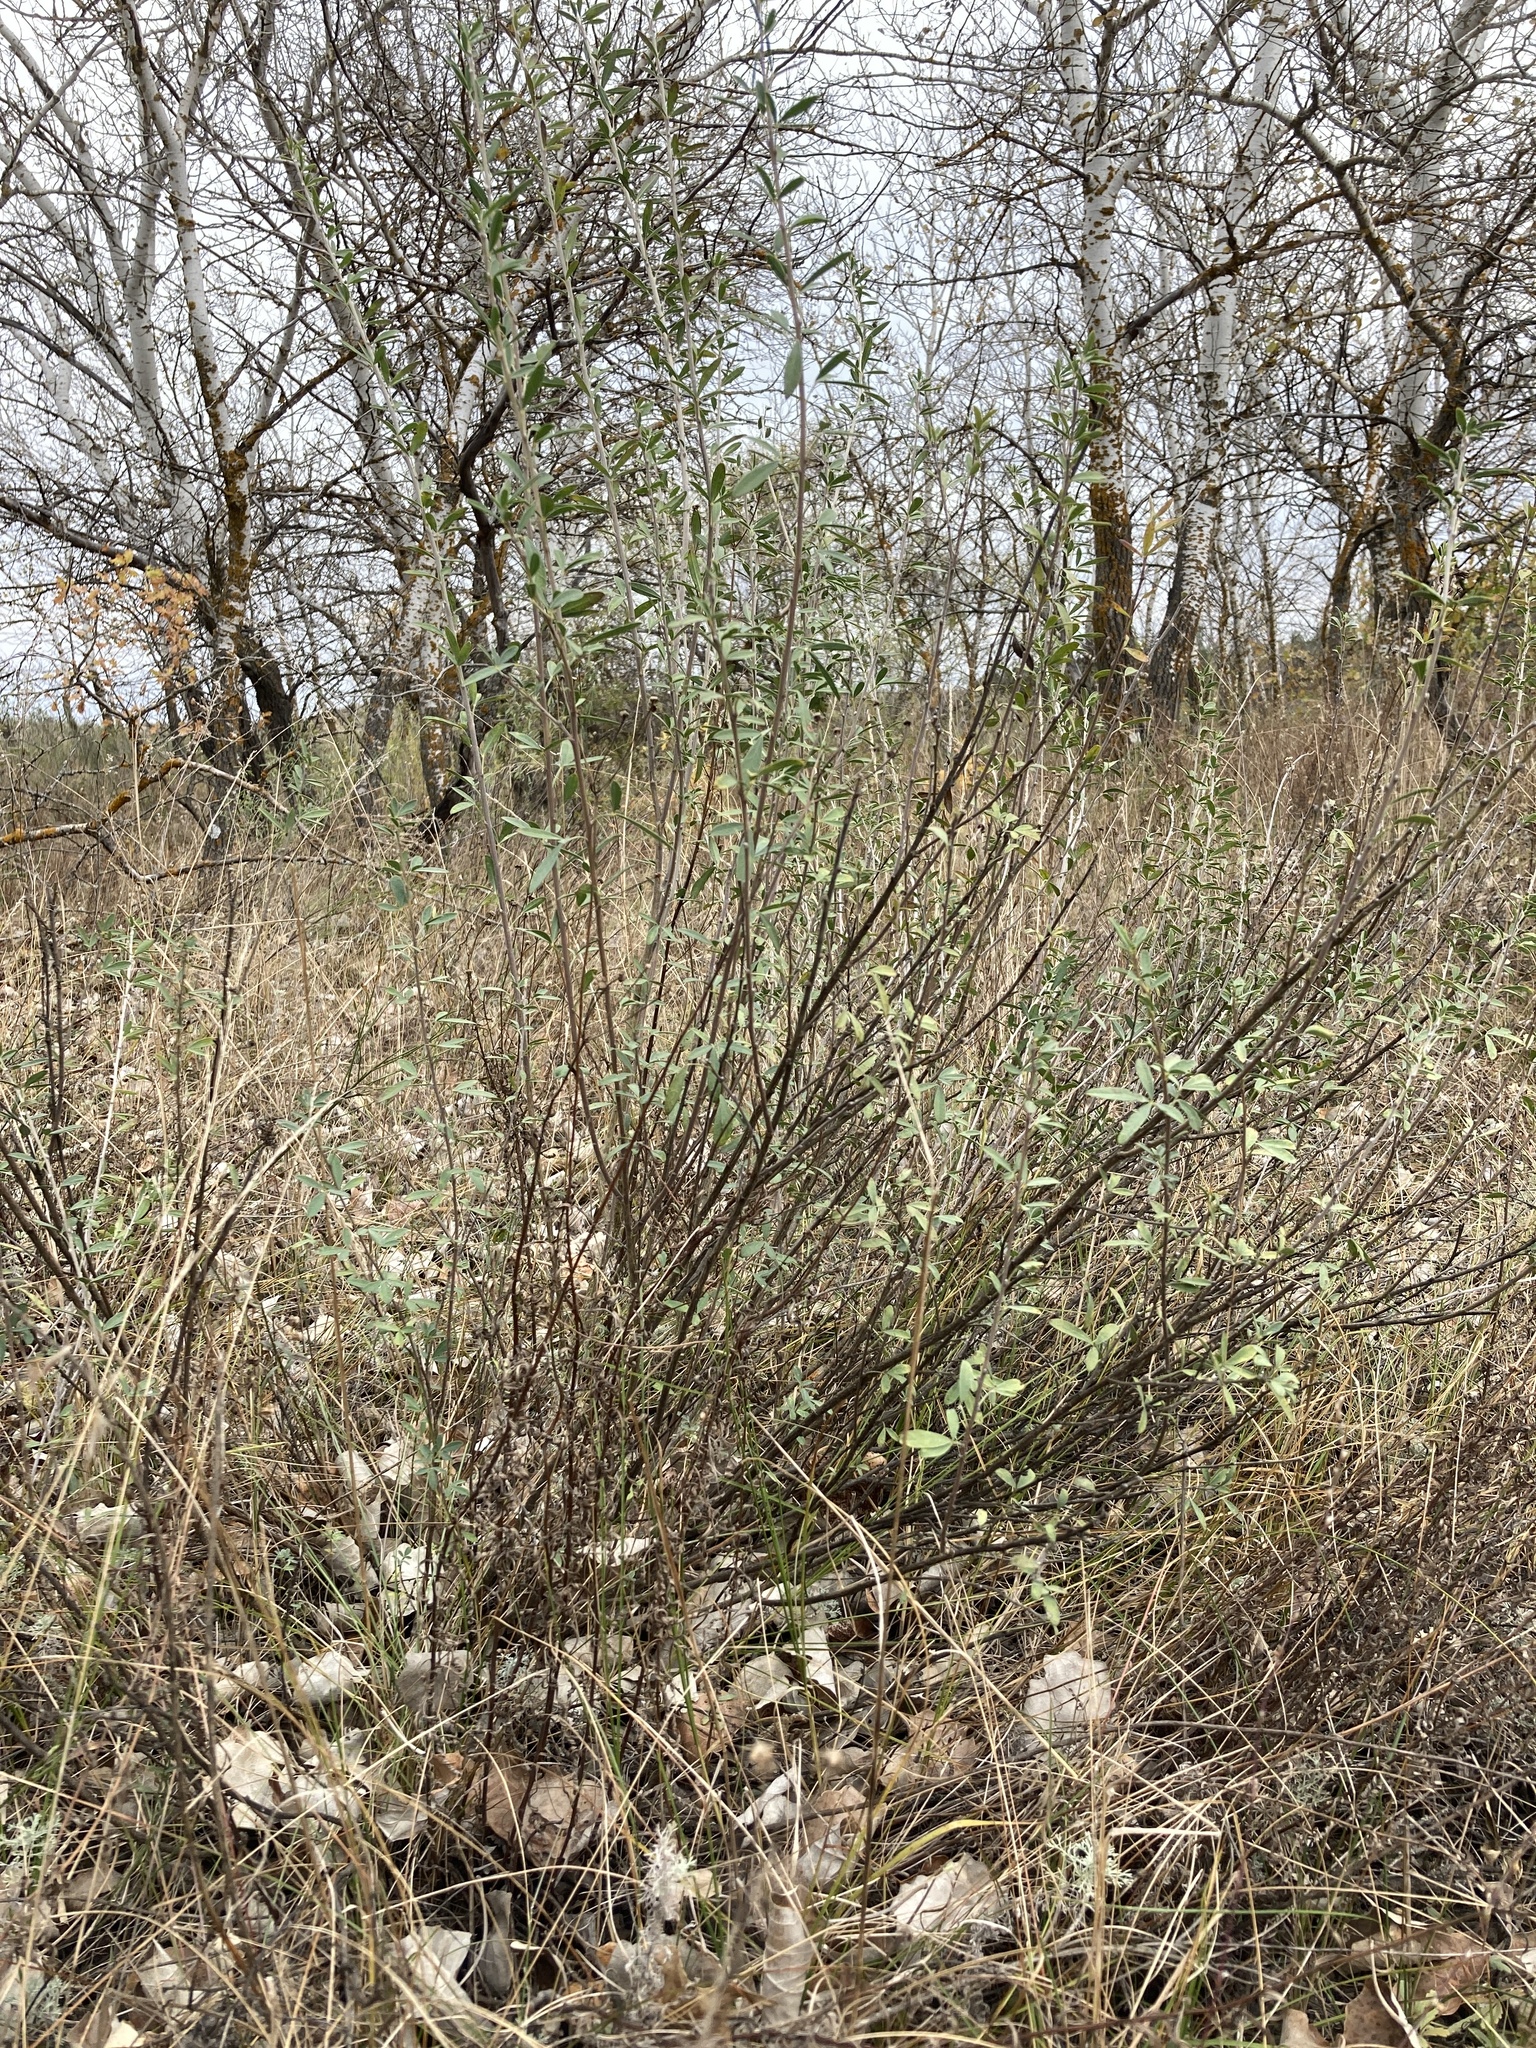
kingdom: Plantae
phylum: Tracheophyta
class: Magnoliopsida
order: Fabales
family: Fabaceae
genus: Chamaecytisus
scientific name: Chamaecytisus ruthenicus
